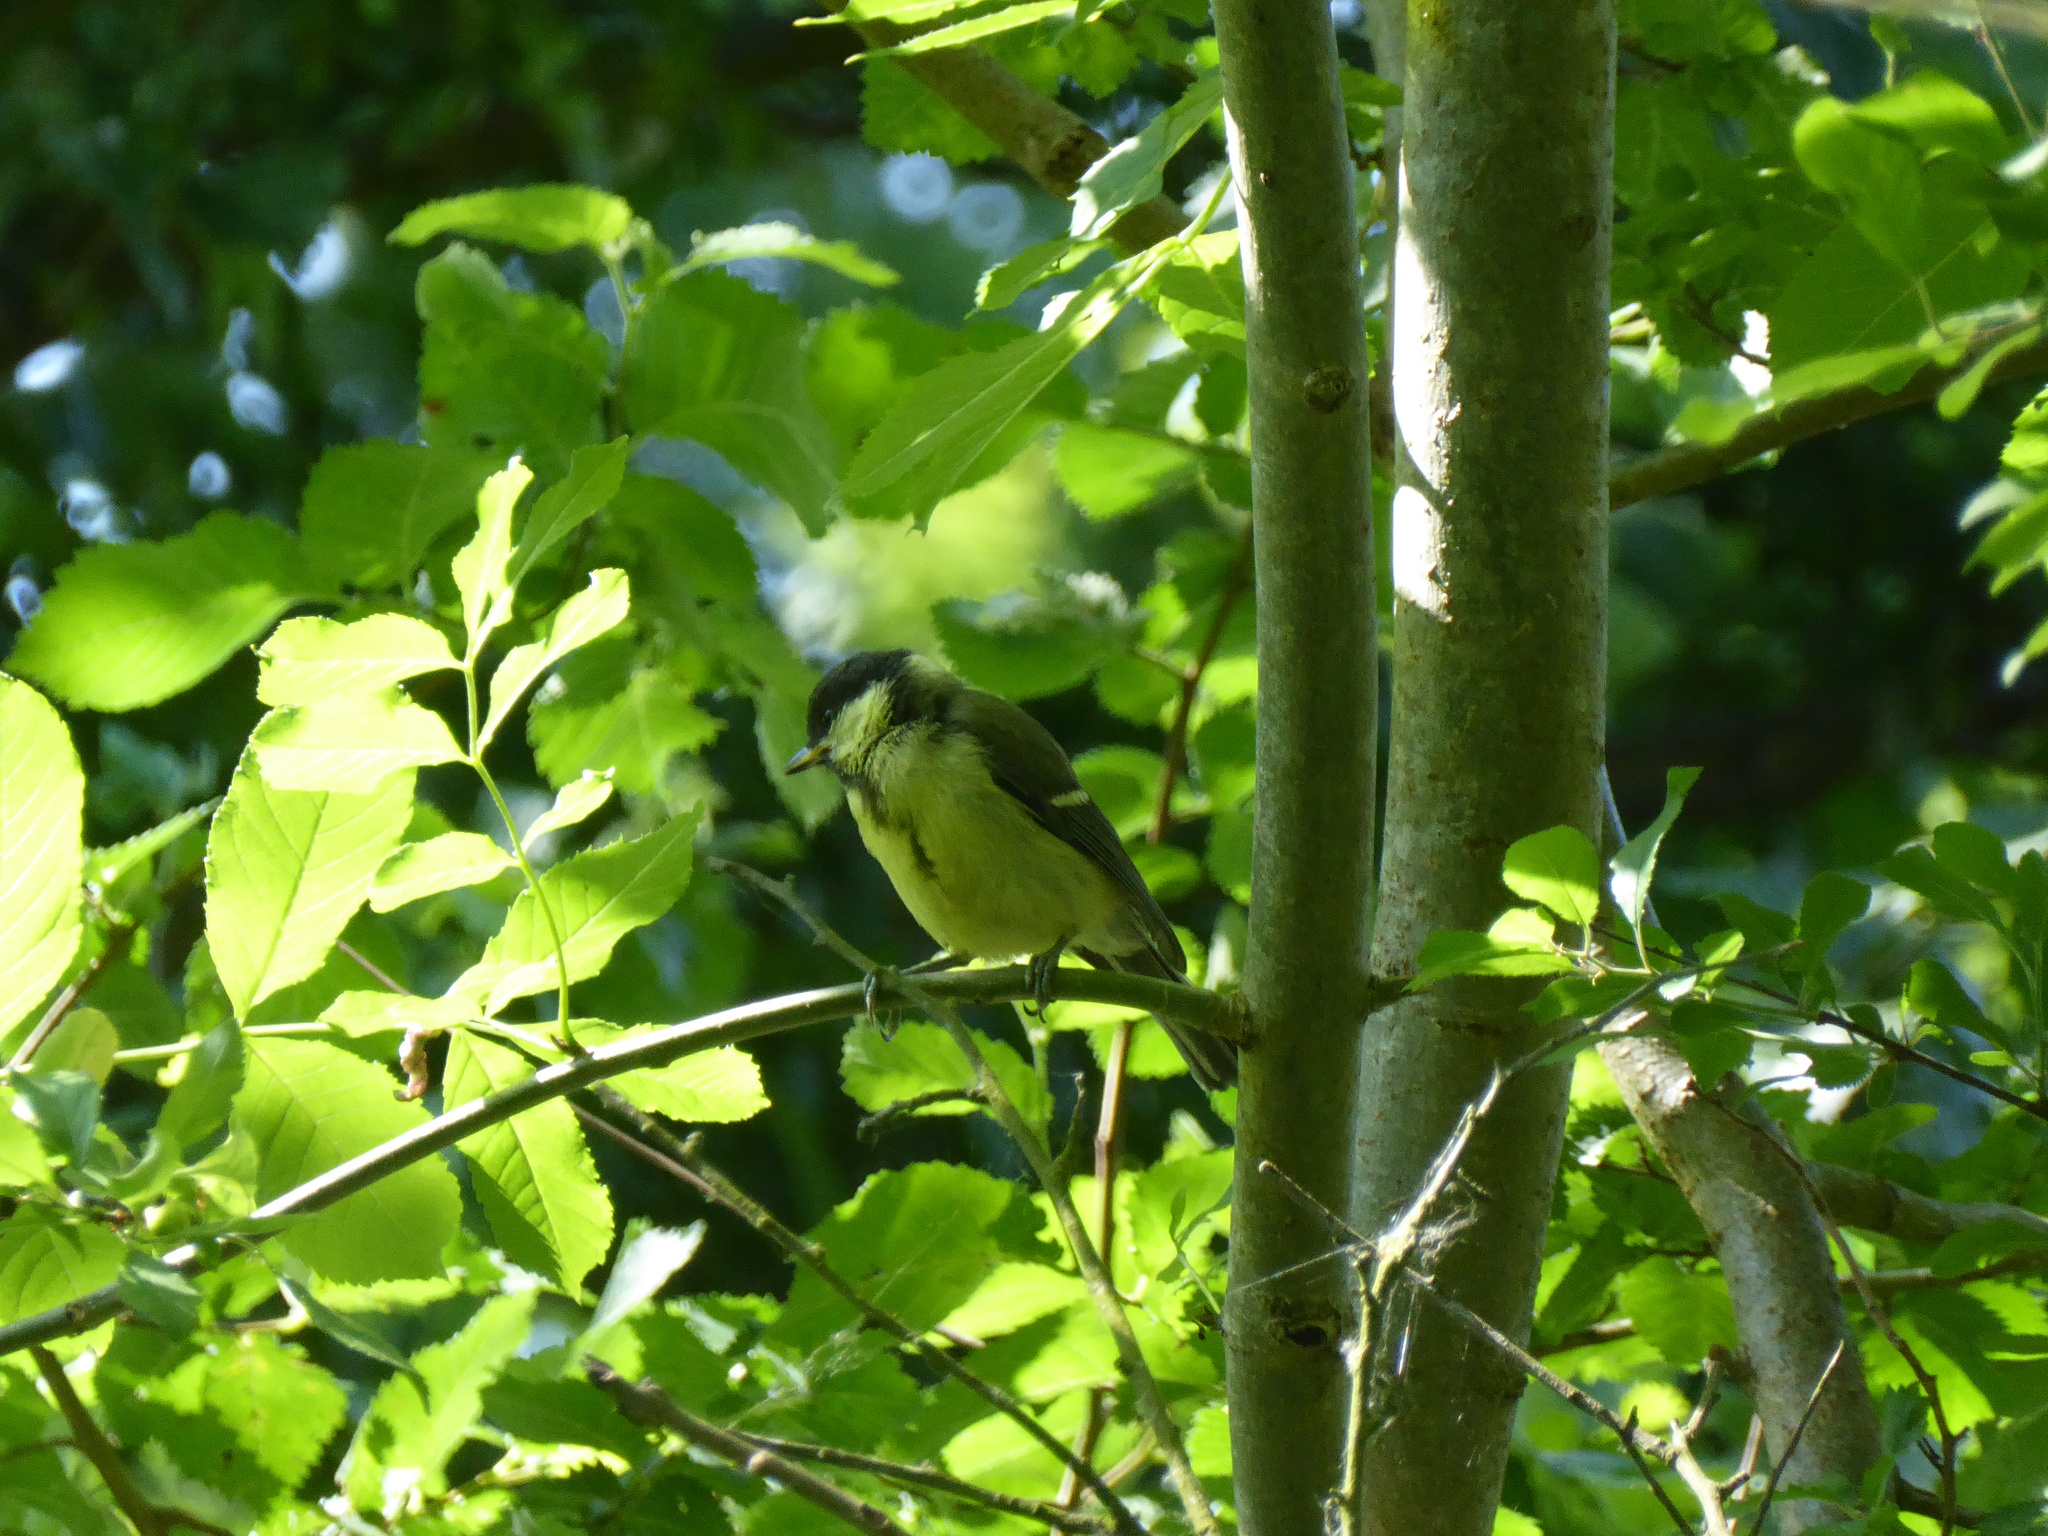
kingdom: Animalia
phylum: Chordata
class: Aves
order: Passeriformes
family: Paridae
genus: Parus
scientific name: Parus major
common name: Great tit
